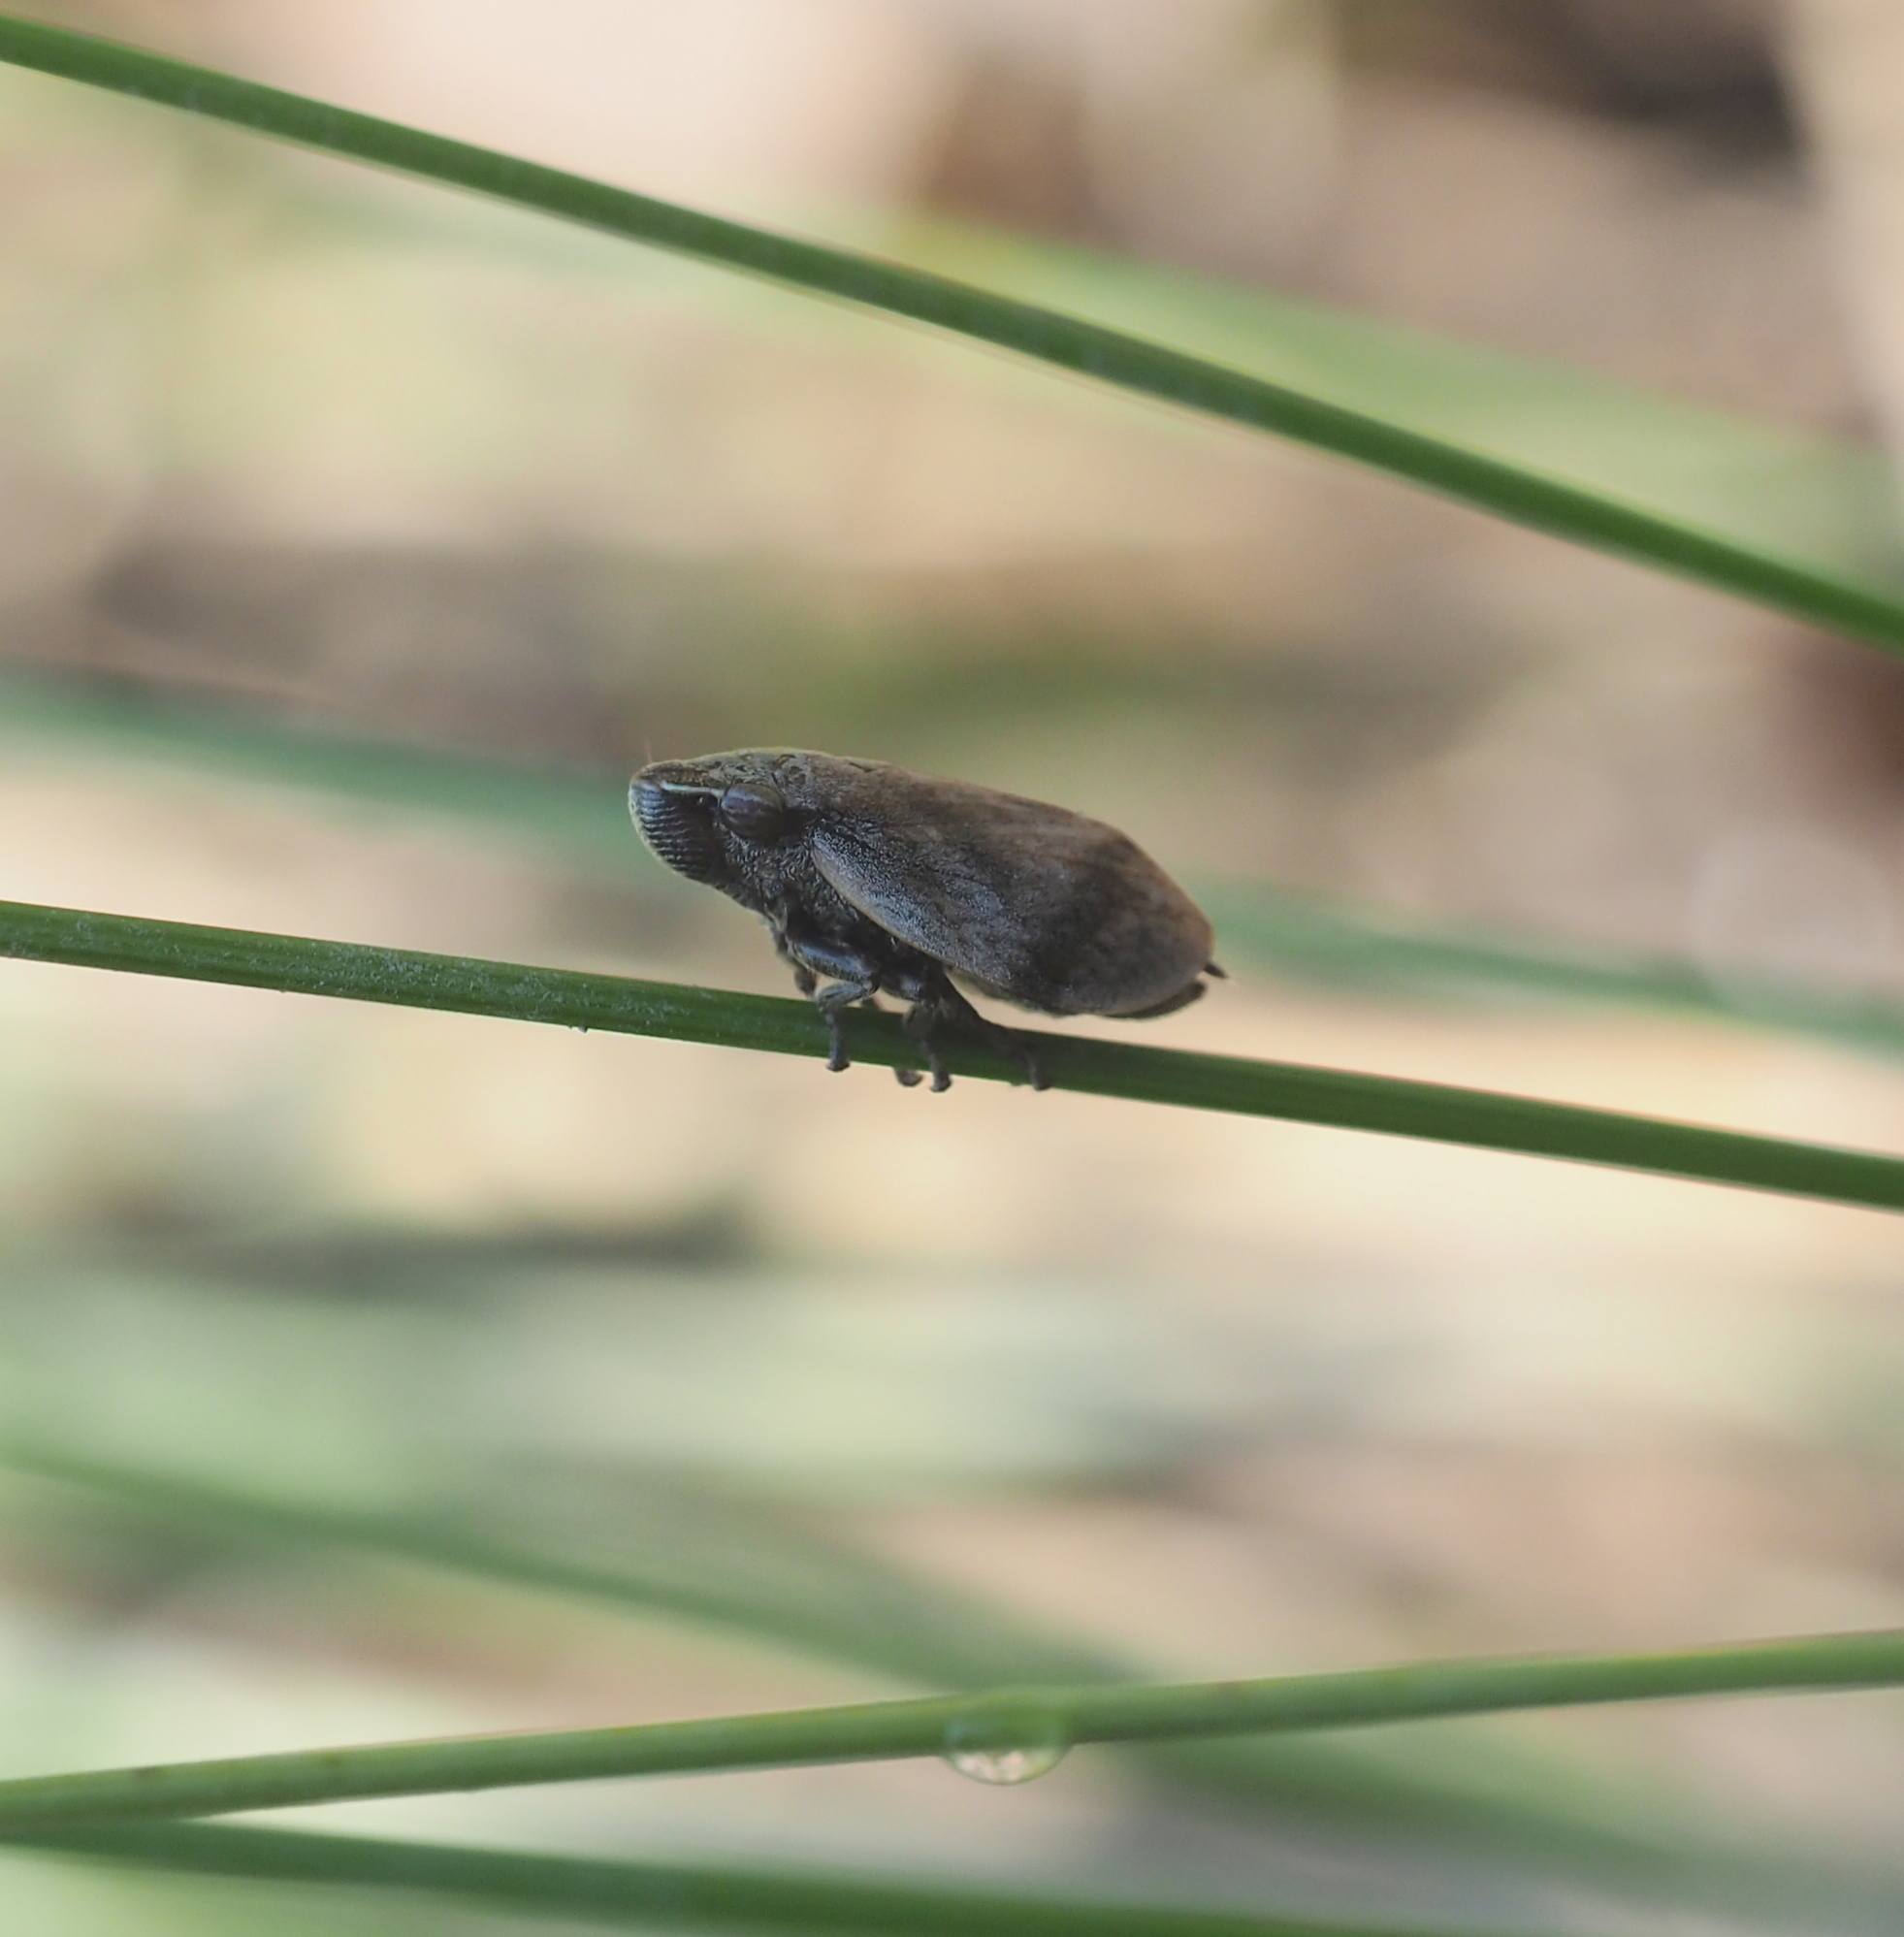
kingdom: Animalia
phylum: Arthropoda
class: Insecta
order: Hemiptera
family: Aphrophoridae
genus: Lepyronia
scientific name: Lepyronia coleoptrata
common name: Leafhopper
